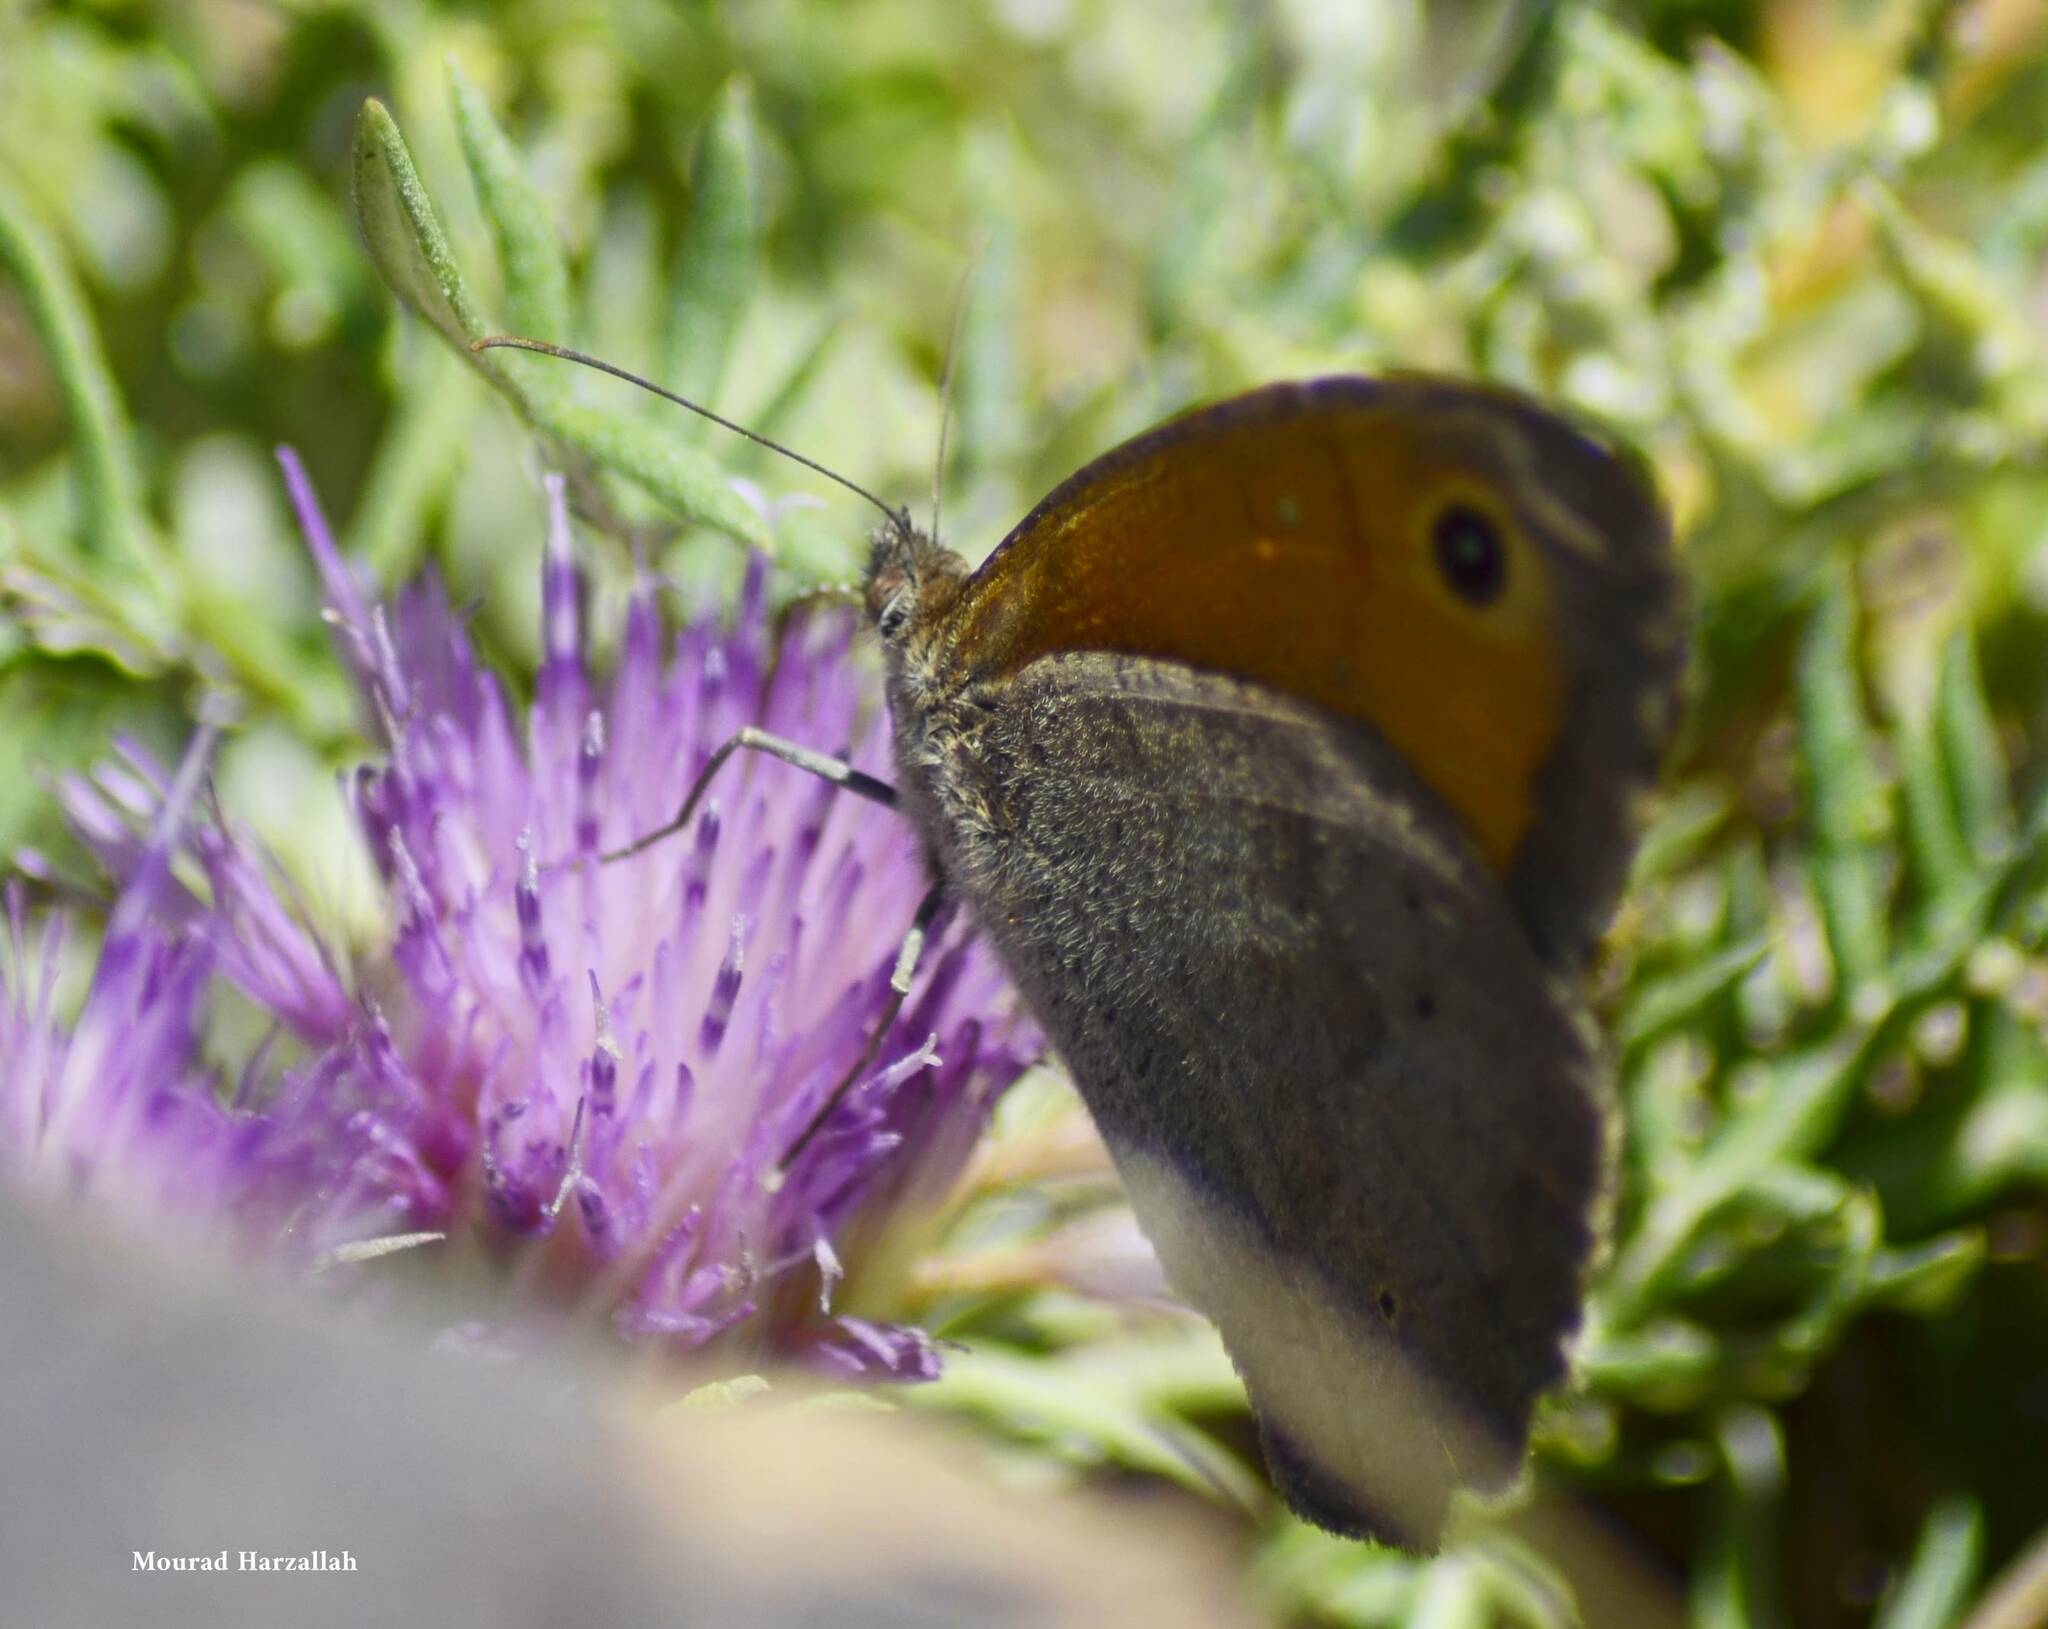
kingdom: Animalia
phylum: Arthropoda
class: Insecta
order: Lepidoptera
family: Nymphalidae
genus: Maniola
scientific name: Maniola jurtina
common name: Meadow brown
